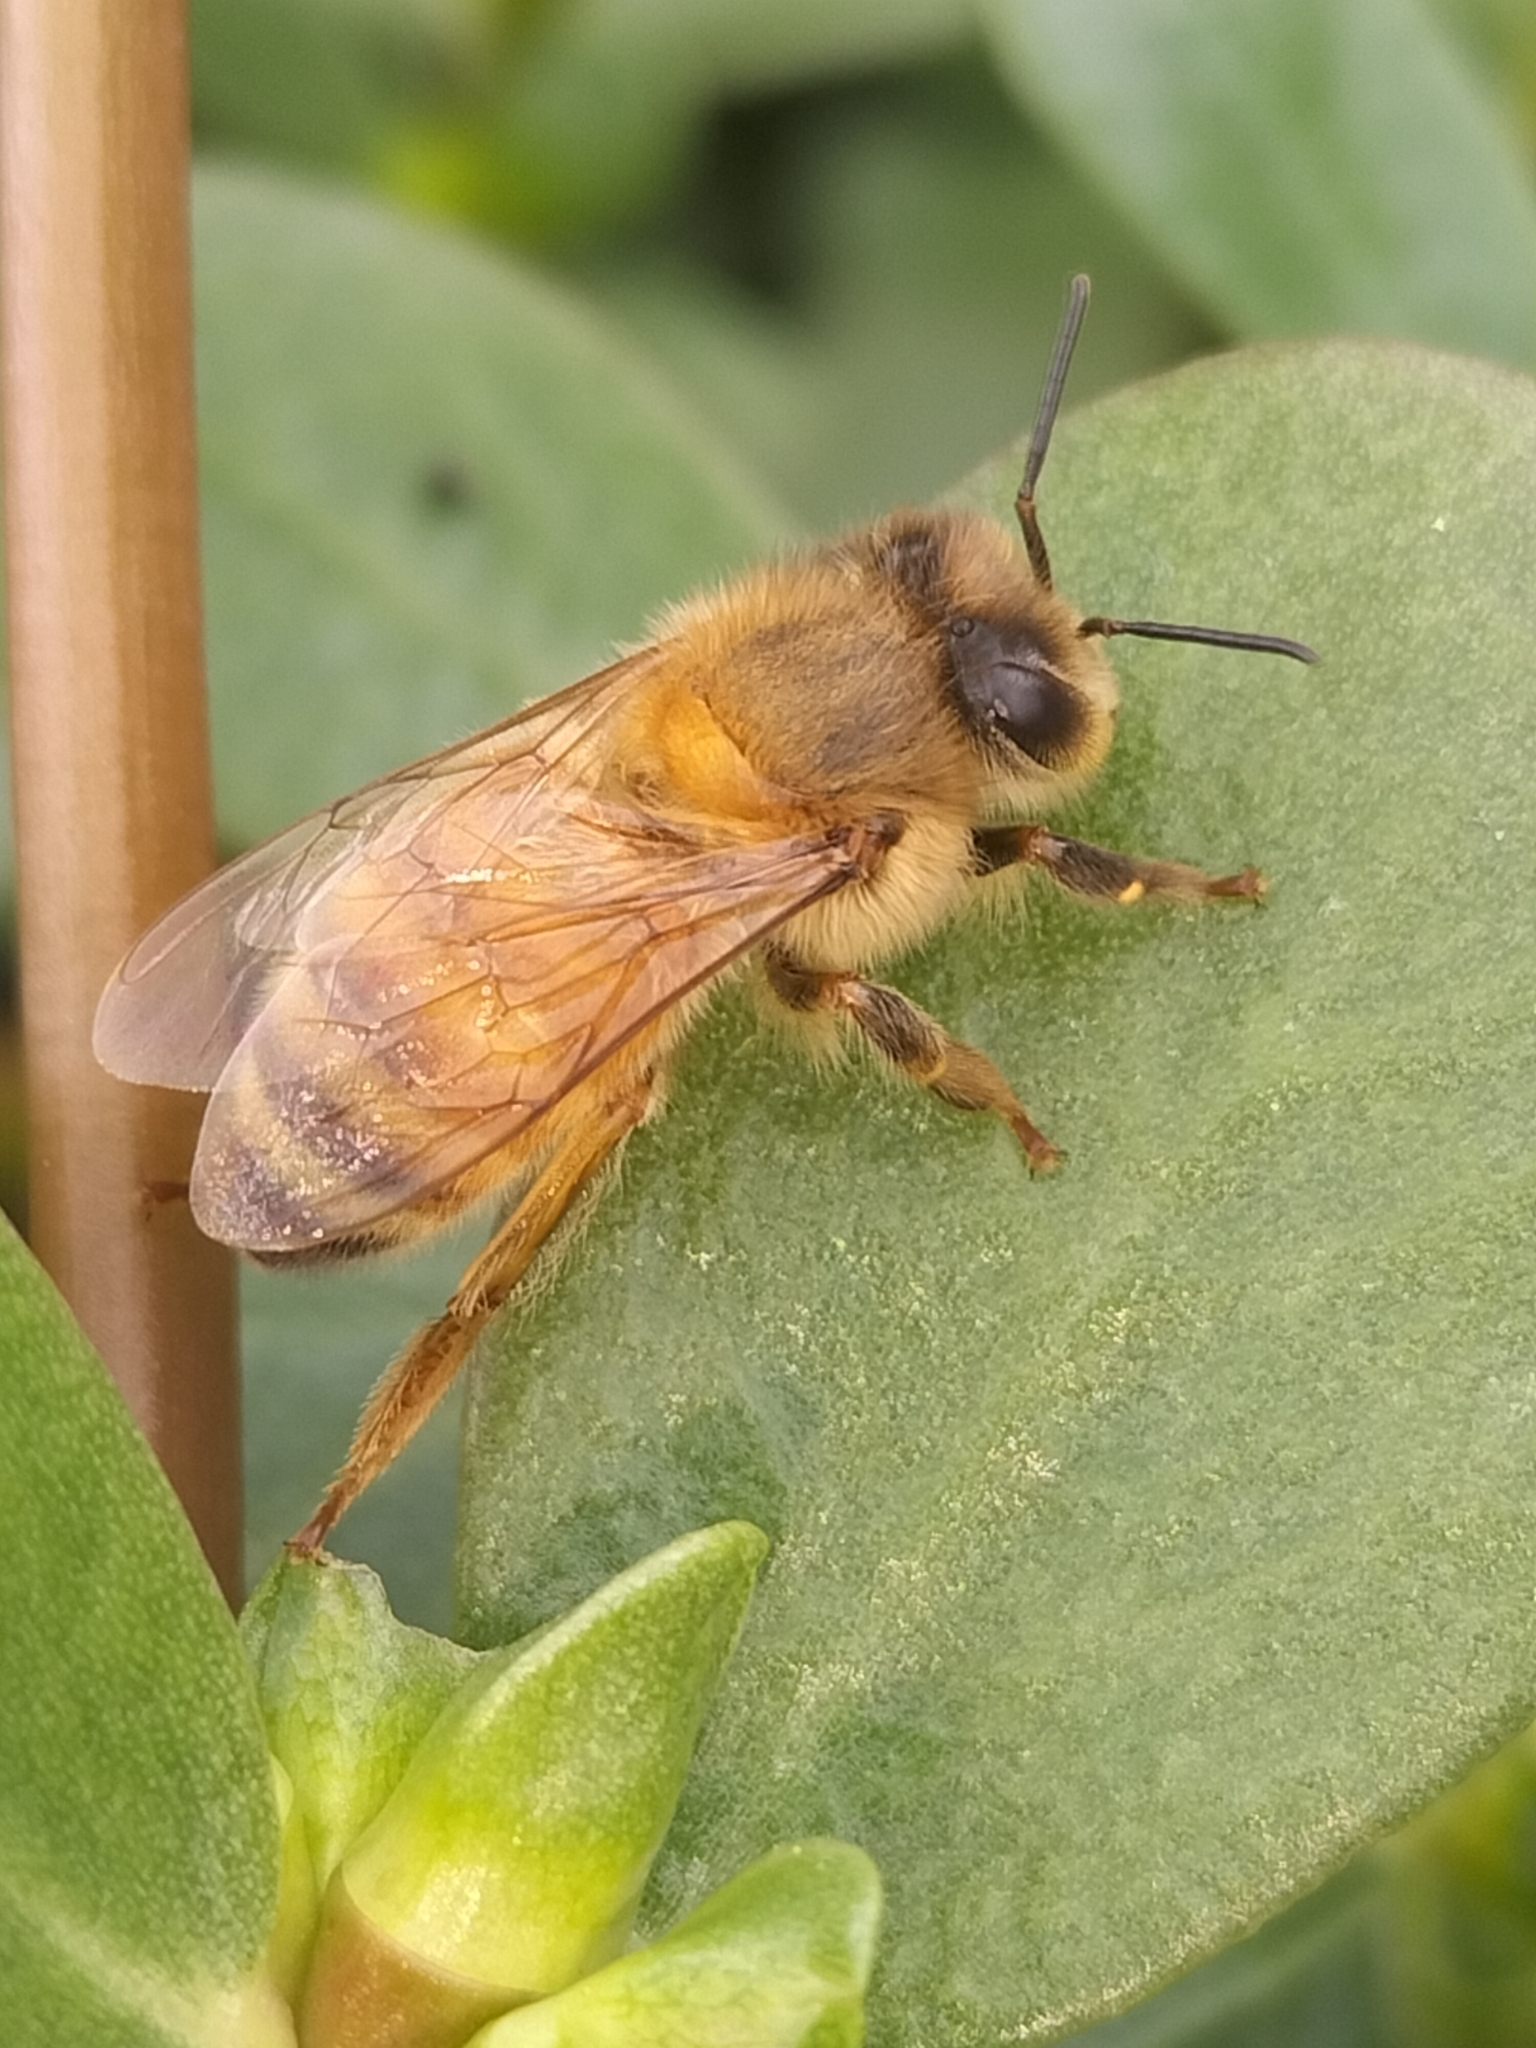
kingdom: Animalia
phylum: Arthropoda
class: Insecta
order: Hymenoptera
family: Apidae
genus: Apis
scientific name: Apis mellifera
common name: Honey bee
